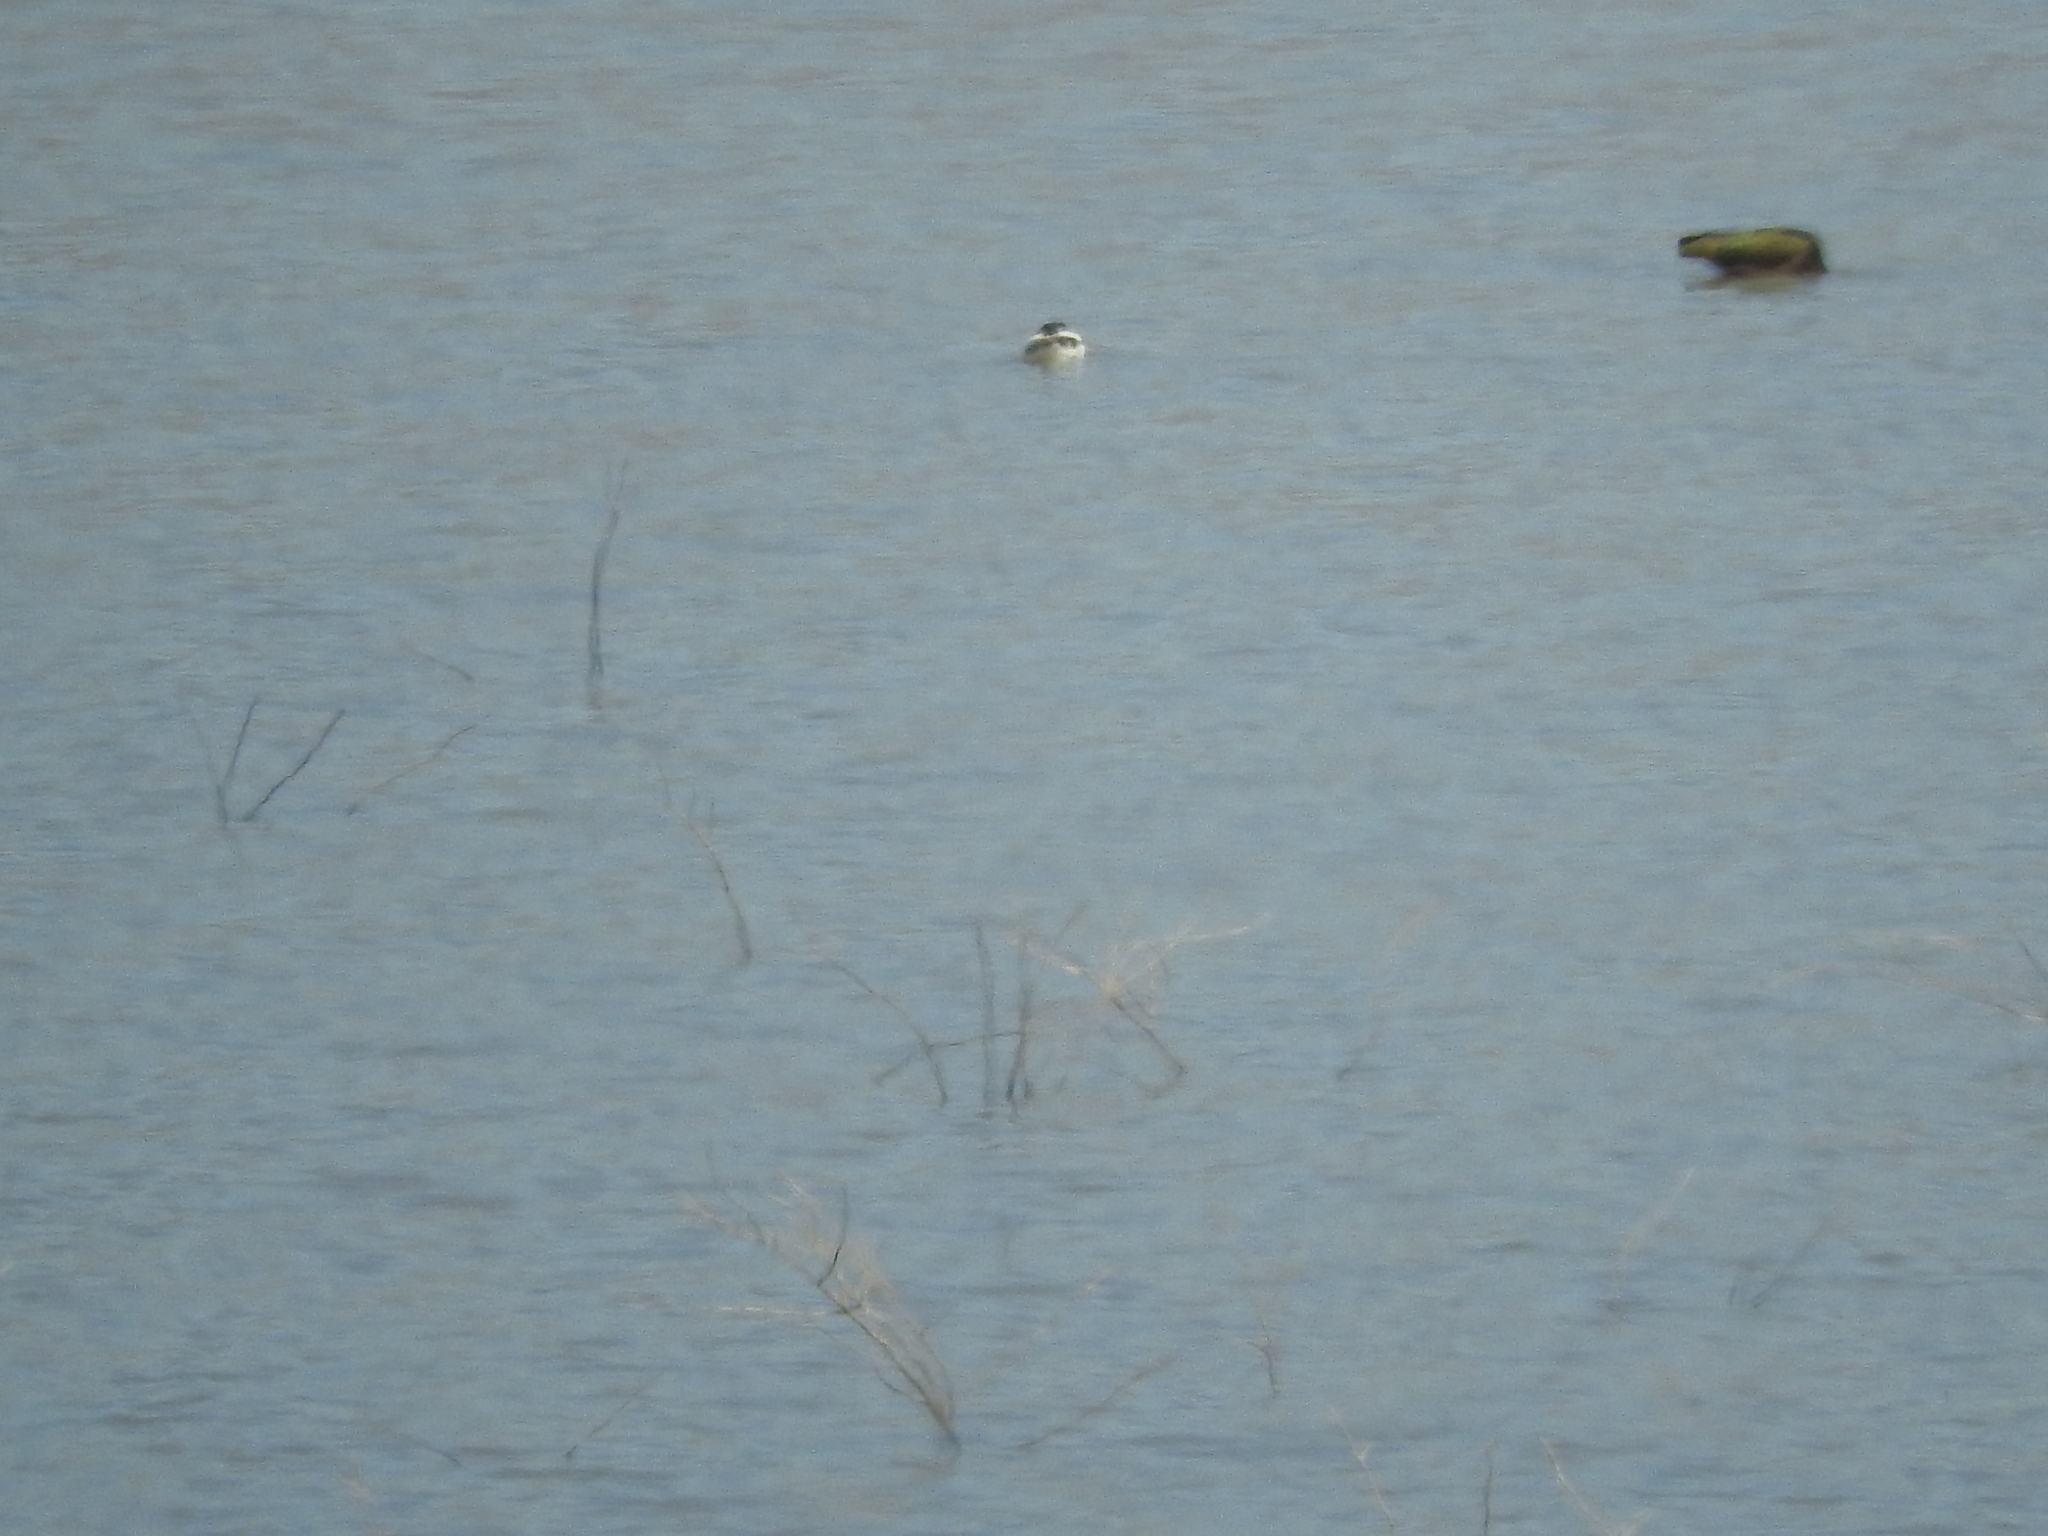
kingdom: Animalia
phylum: Chordata
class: Aves
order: Anseriformes
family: Anatidae
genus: Spatula
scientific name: Spatula clypeata
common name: Northern shoveler
